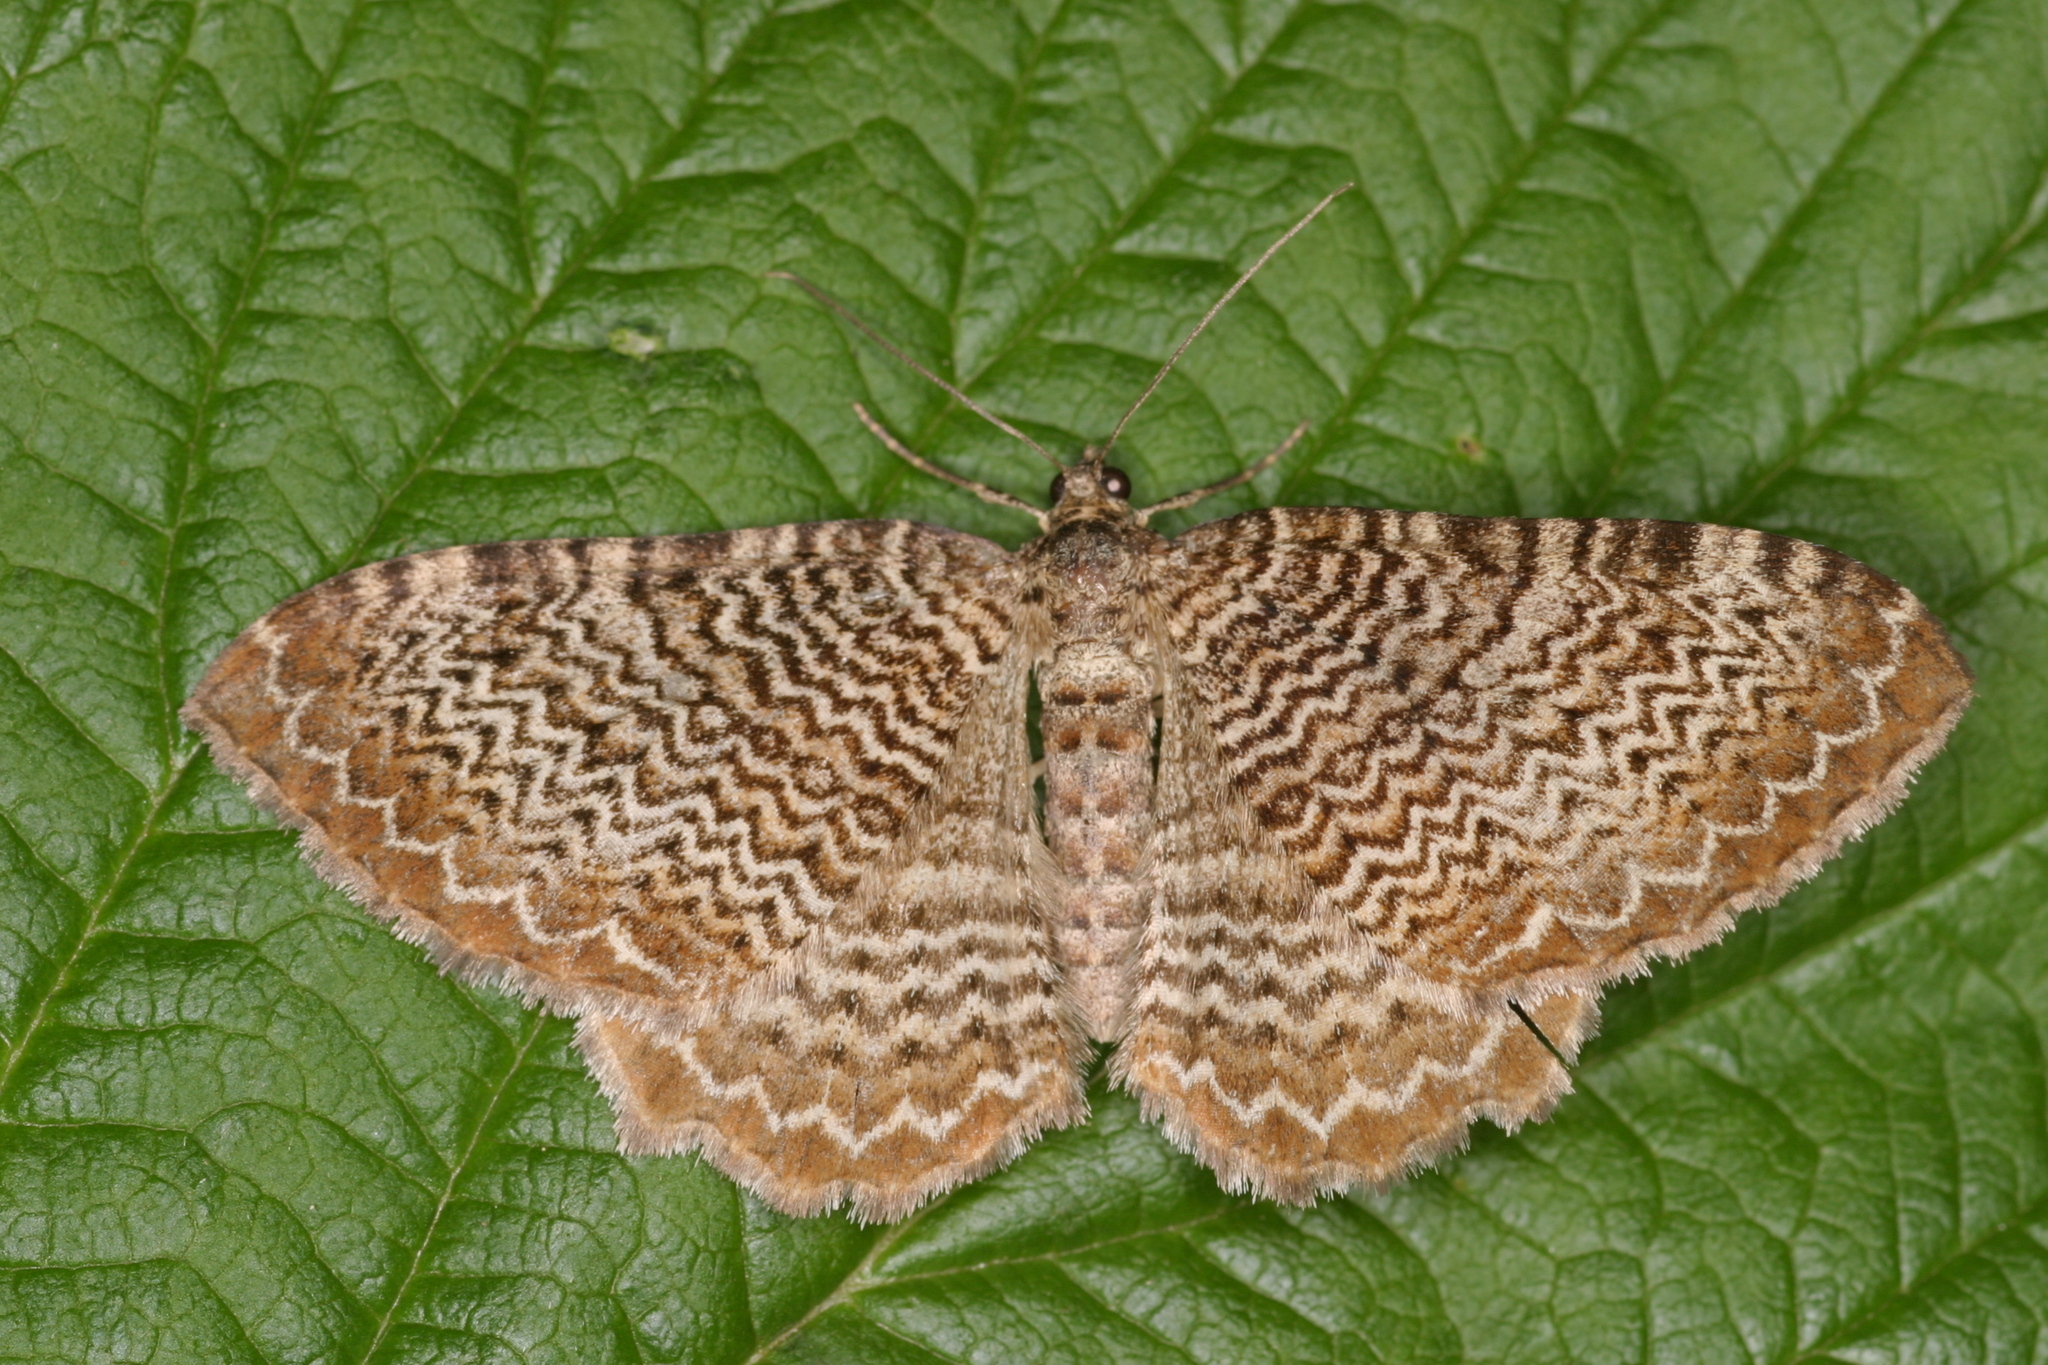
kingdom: Animalia
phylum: Arthropoda
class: Insecta
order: Lepidoptera
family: Geometridae
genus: Rheumaptera
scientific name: Rheumaptera undulata
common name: Scallop shell
